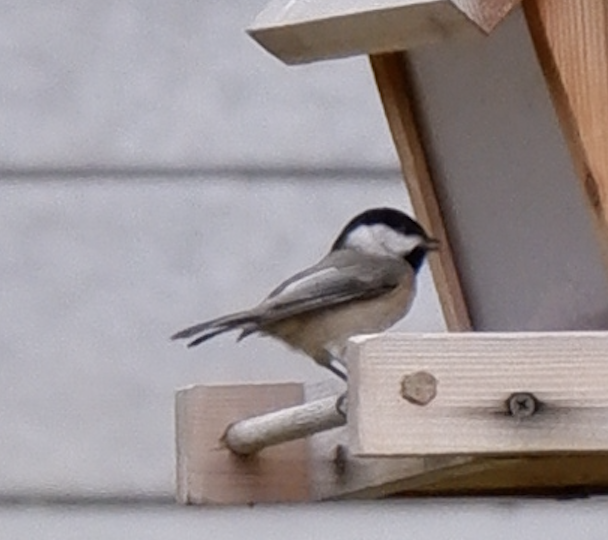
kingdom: Animalia
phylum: Chordata
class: Aves
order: Passeriformes
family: Paridae
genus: Poecile
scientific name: Poecile
